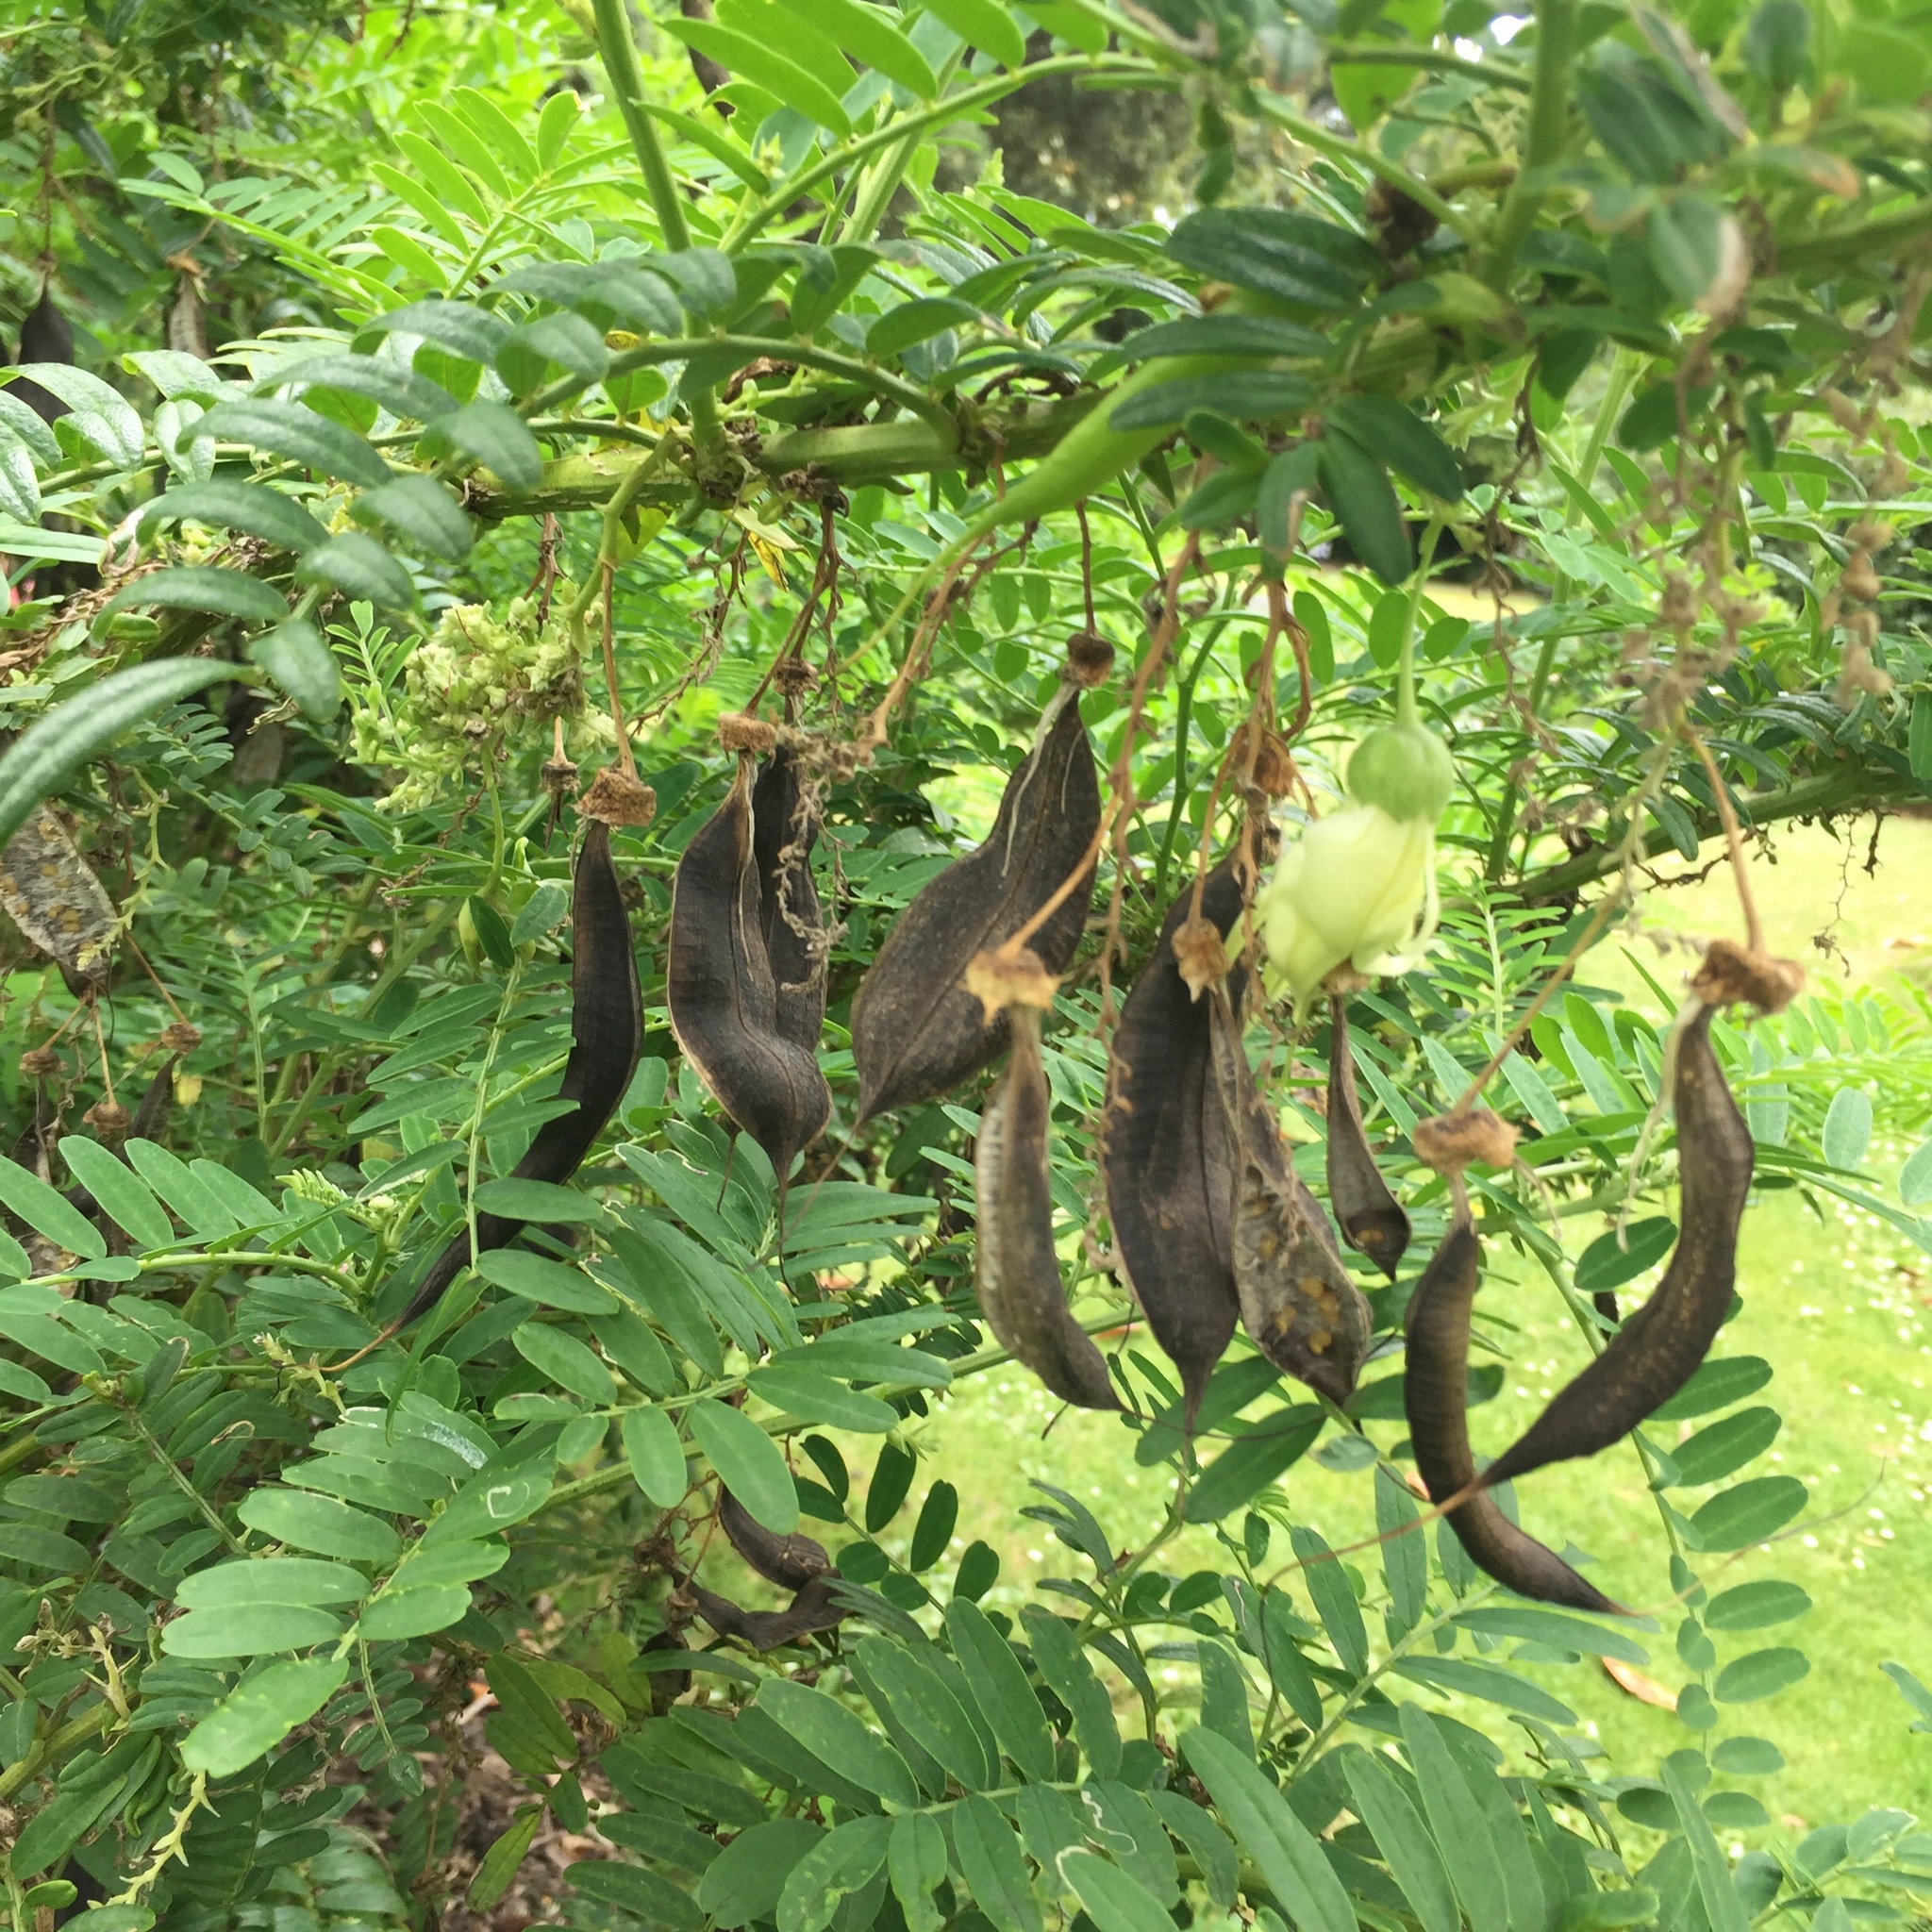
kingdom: Plantae
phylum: Tracheophyta
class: Magnoliopsida
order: Fabales
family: Fabaceae
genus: Clianthus
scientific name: Clianthus puniceus
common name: Kaka-beak
